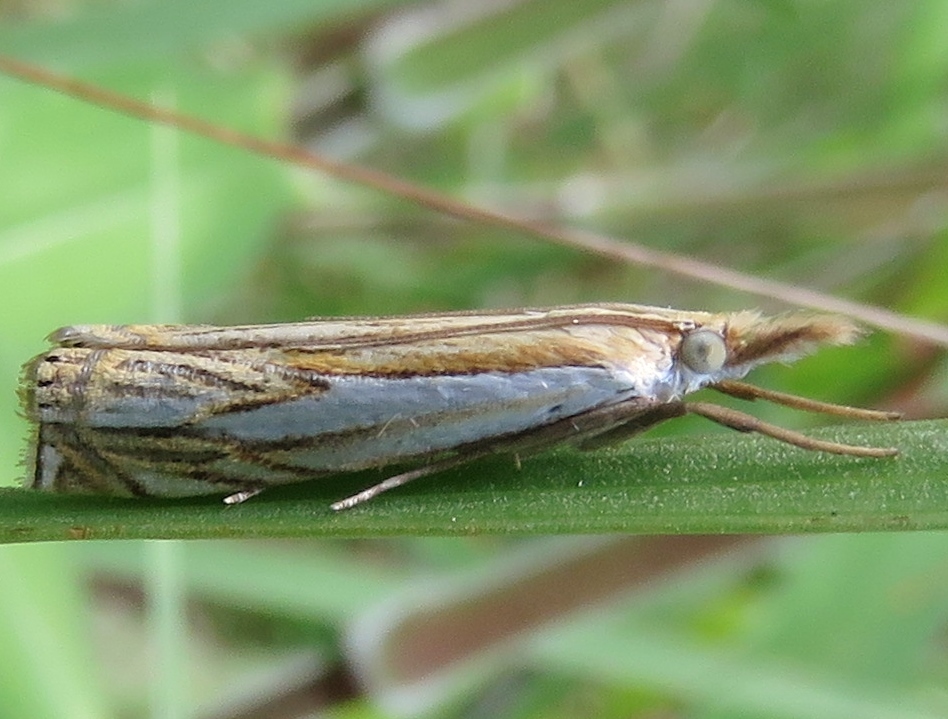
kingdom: Animalia
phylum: Arthropoda
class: Insecta
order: Lepidoptera
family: Crambidae
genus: Crambus
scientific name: Crambus saltuellus
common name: Pasture grass-veneer
